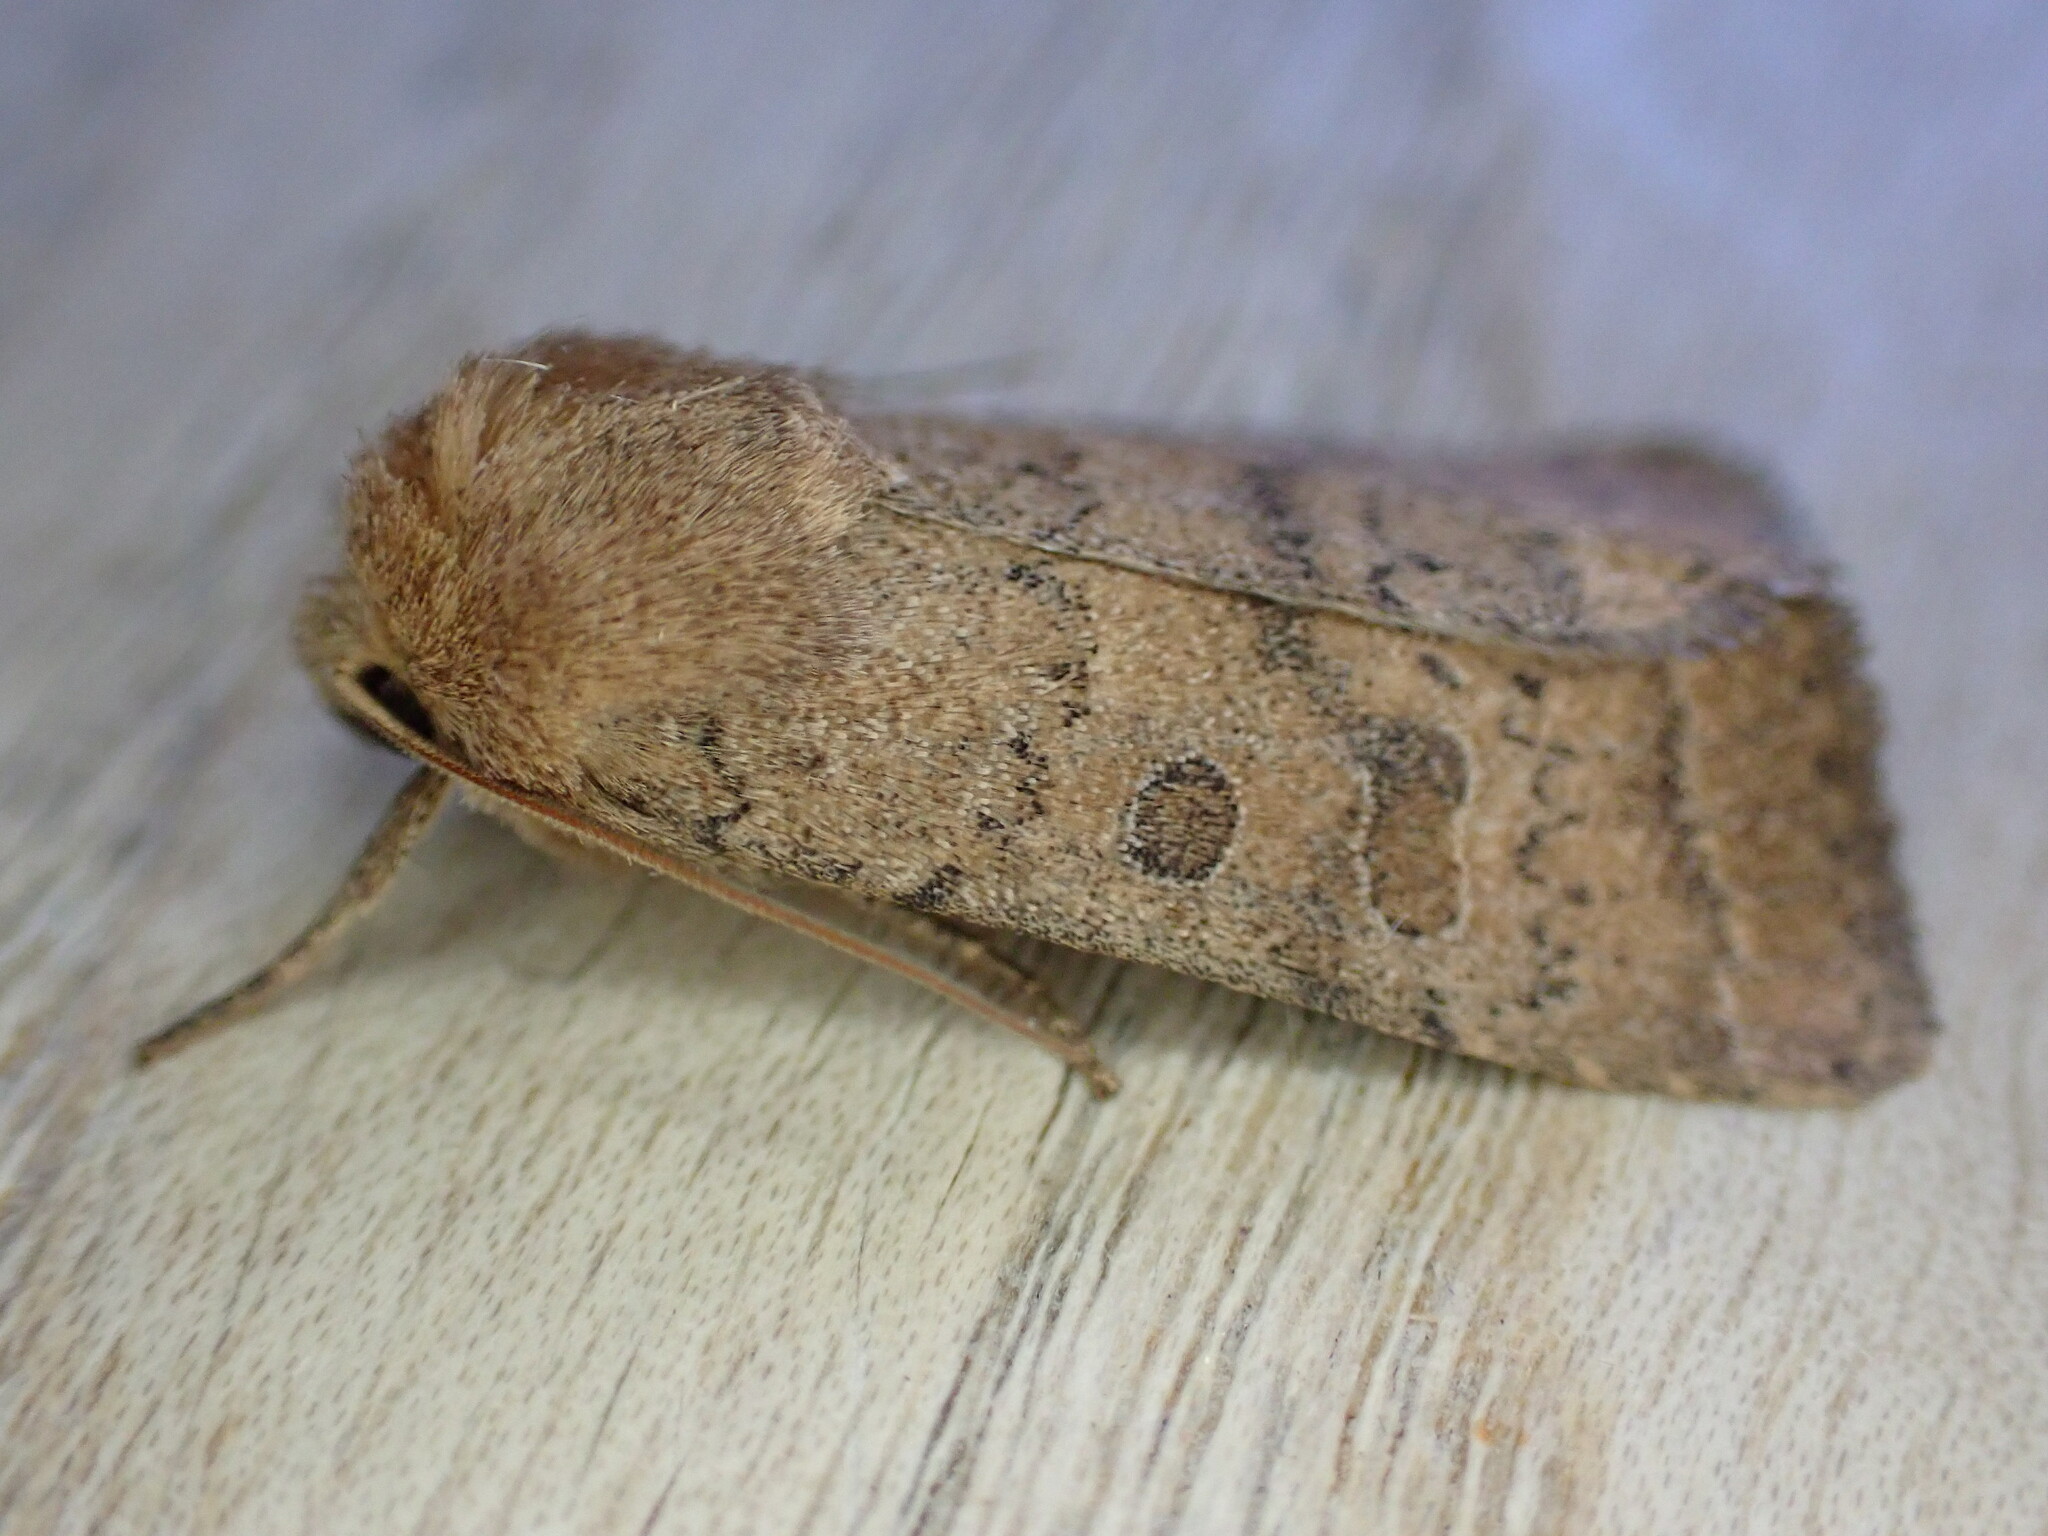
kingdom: Animalia
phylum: Arthropoda
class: Insecta
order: Lepidoptera
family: Noctuidae
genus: Hoplodrina
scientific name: Hoplodrina octogenaria
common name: Uncertain
